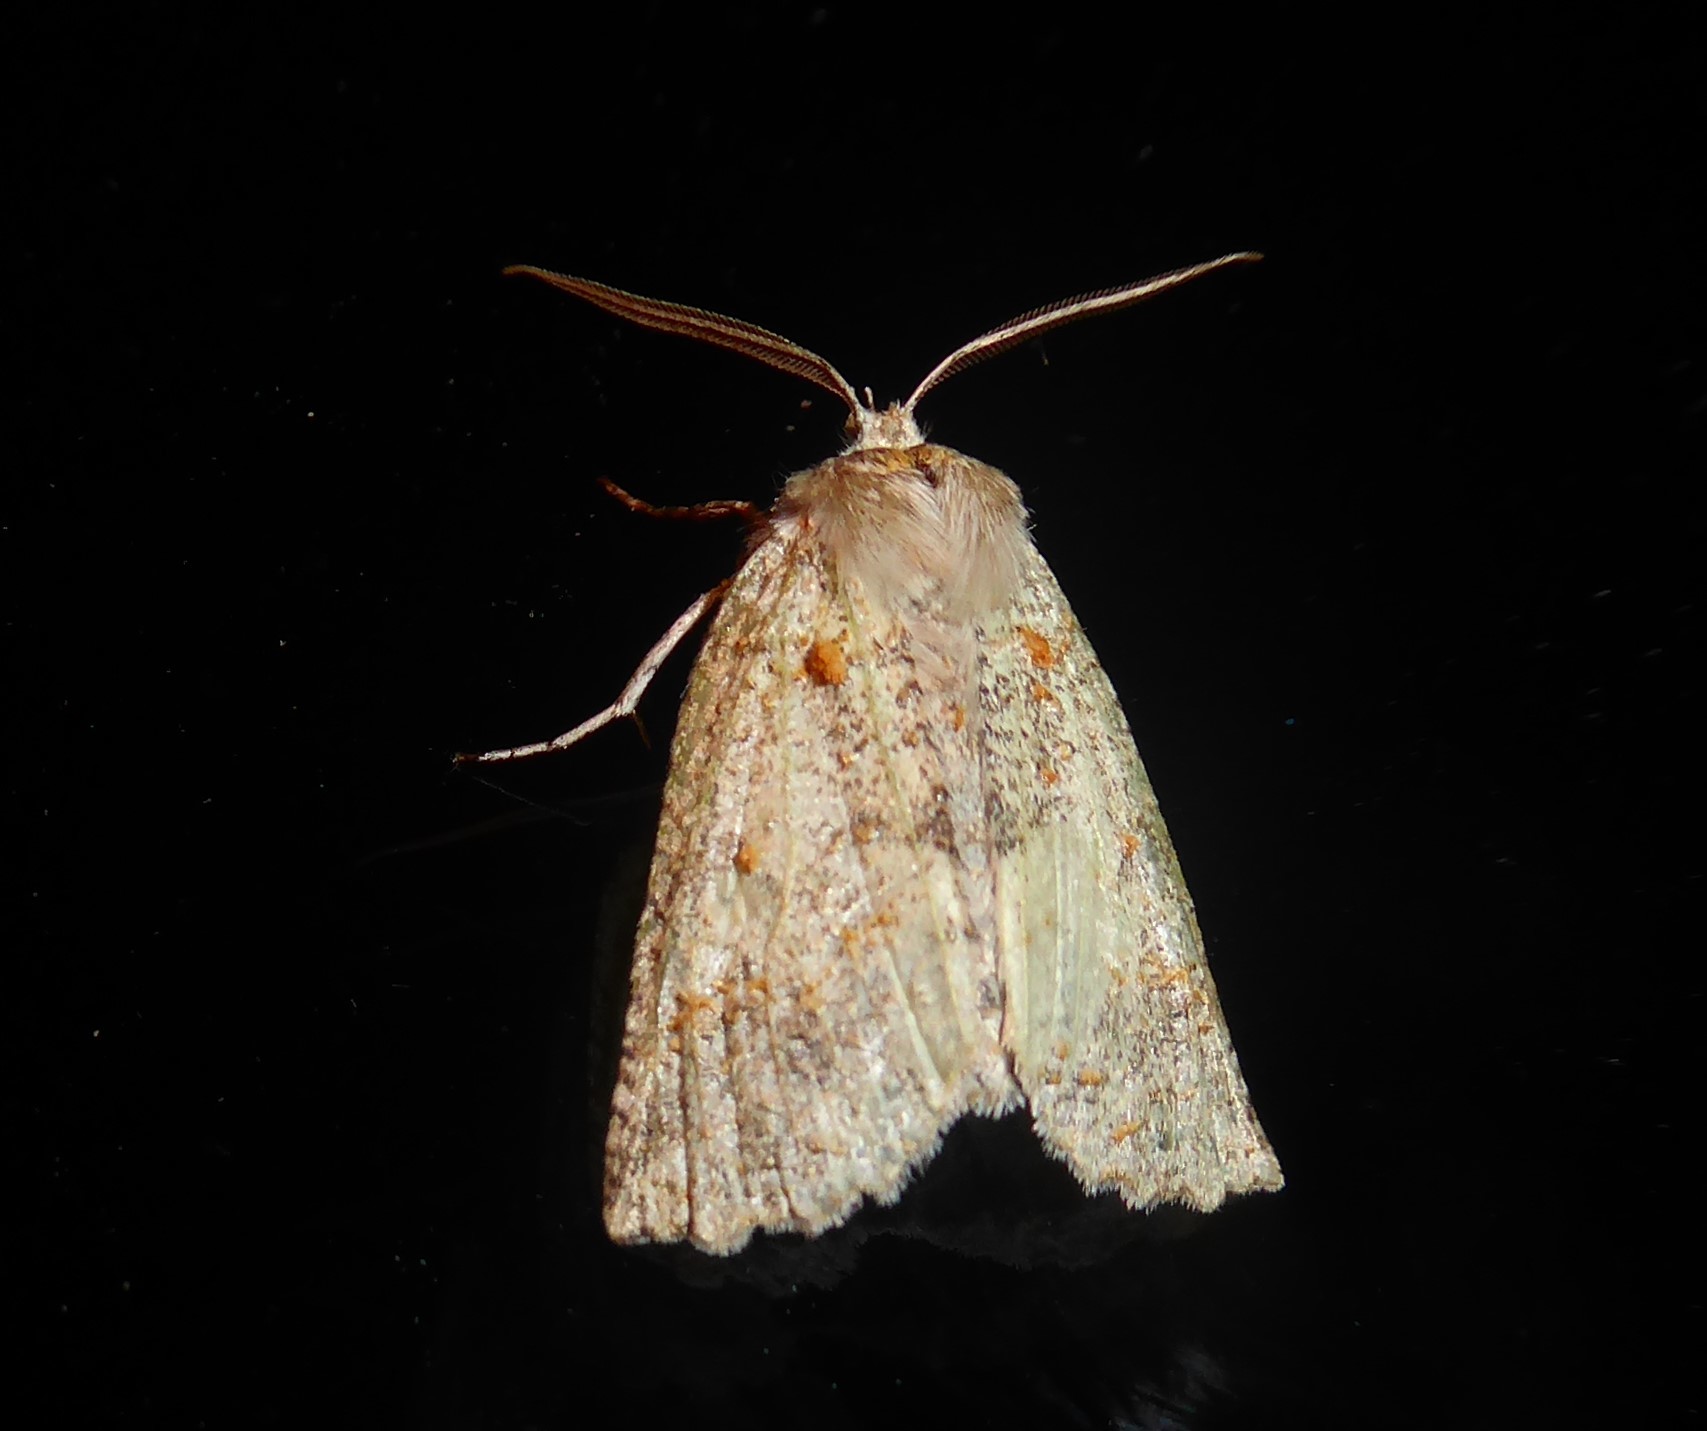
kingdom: Animalia
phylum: Arthropoda
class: Insecta
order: Lepidoptera
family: Geometridae
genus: Declana
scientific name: Declana floccosa
